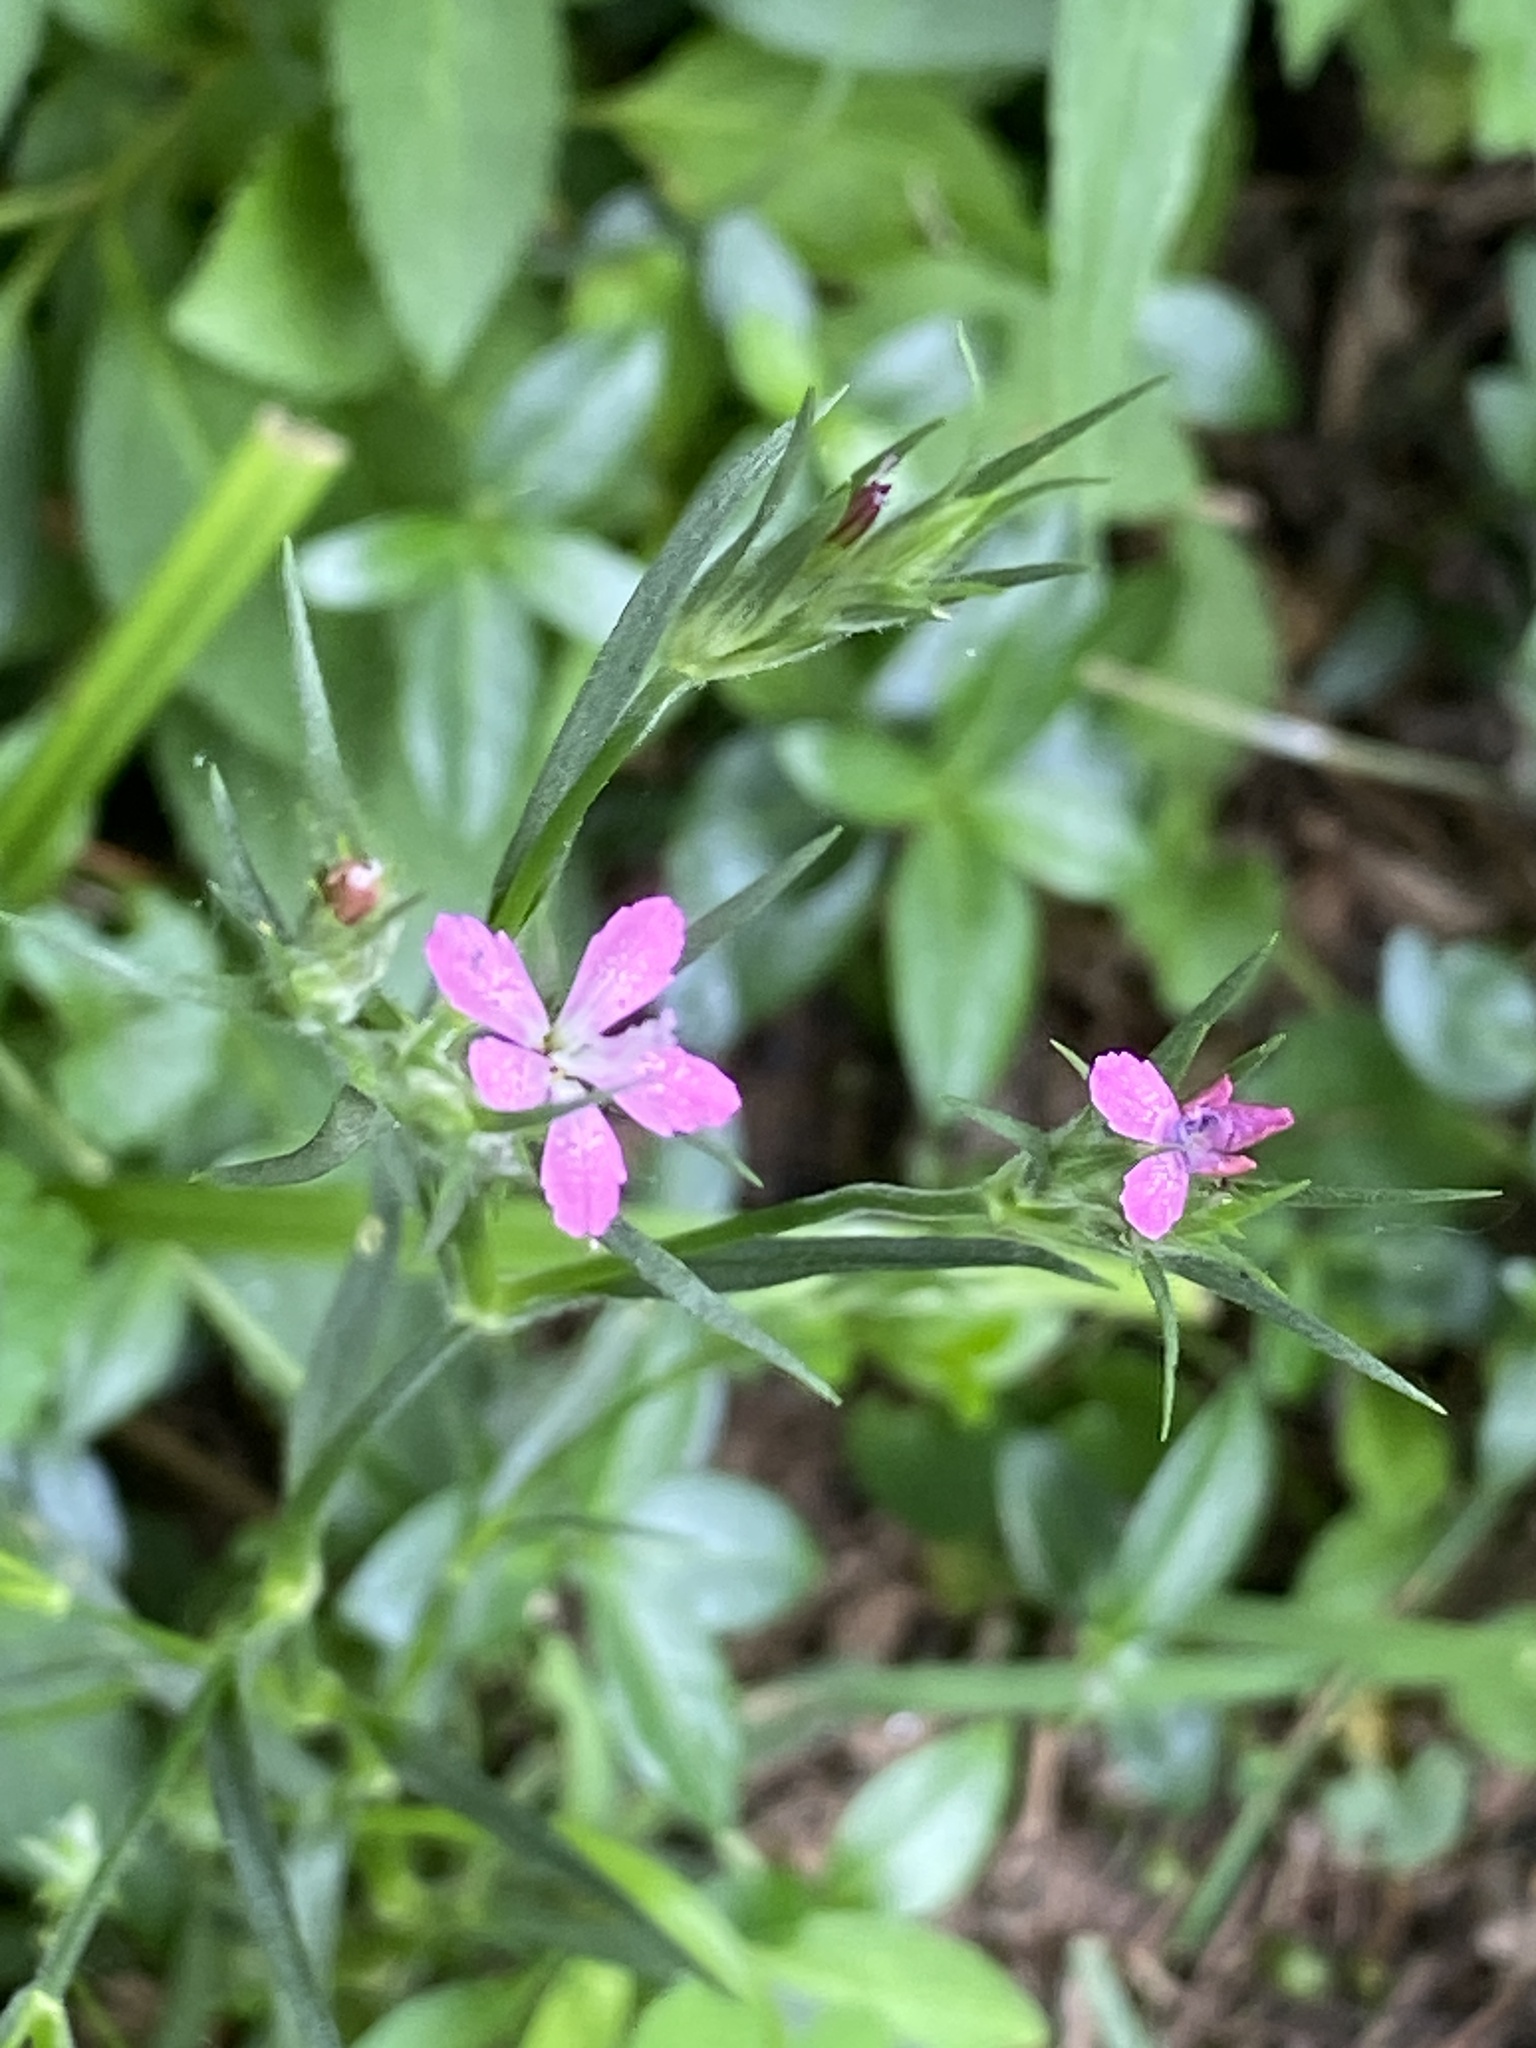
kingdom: Plantae
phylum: Tracheophyta
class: Magnoliopsida
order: Caryophyllales
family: Caryophyllaceae
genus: Dianthus
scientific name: Dianthus armeria
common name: Deptford pink
